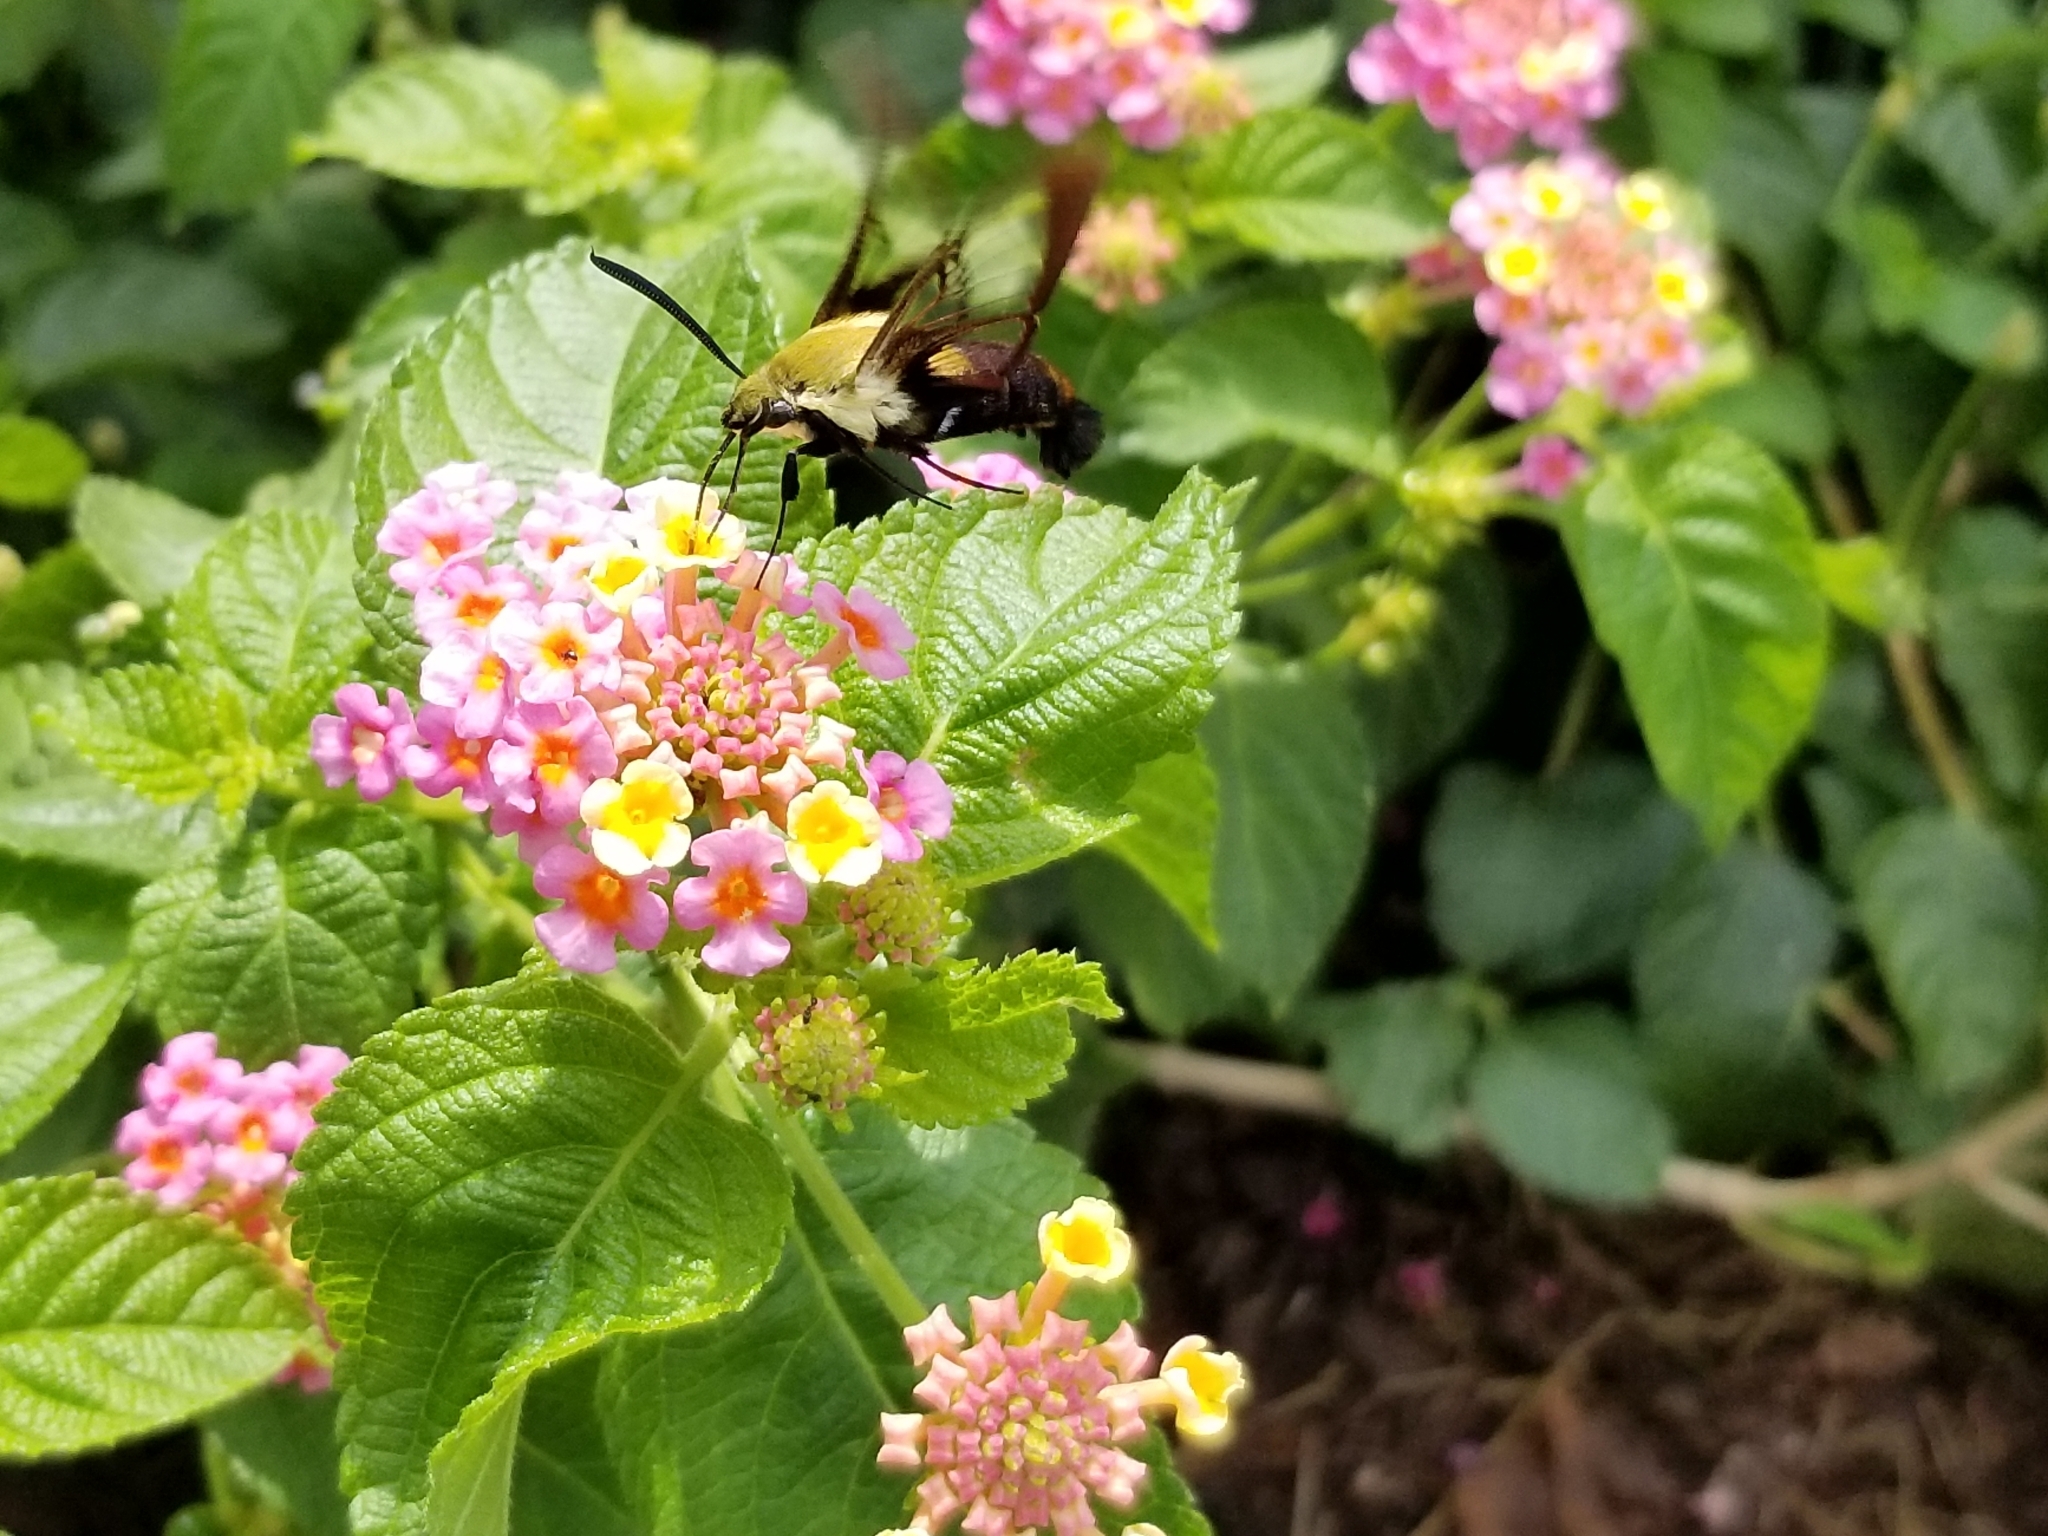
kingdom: Animalia
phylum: Arthropoda
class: Insecta
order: Lepidoptera
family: Sphingidae
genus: Hemaris
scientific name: Hemaris diffinis
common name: Bumblebee moth
